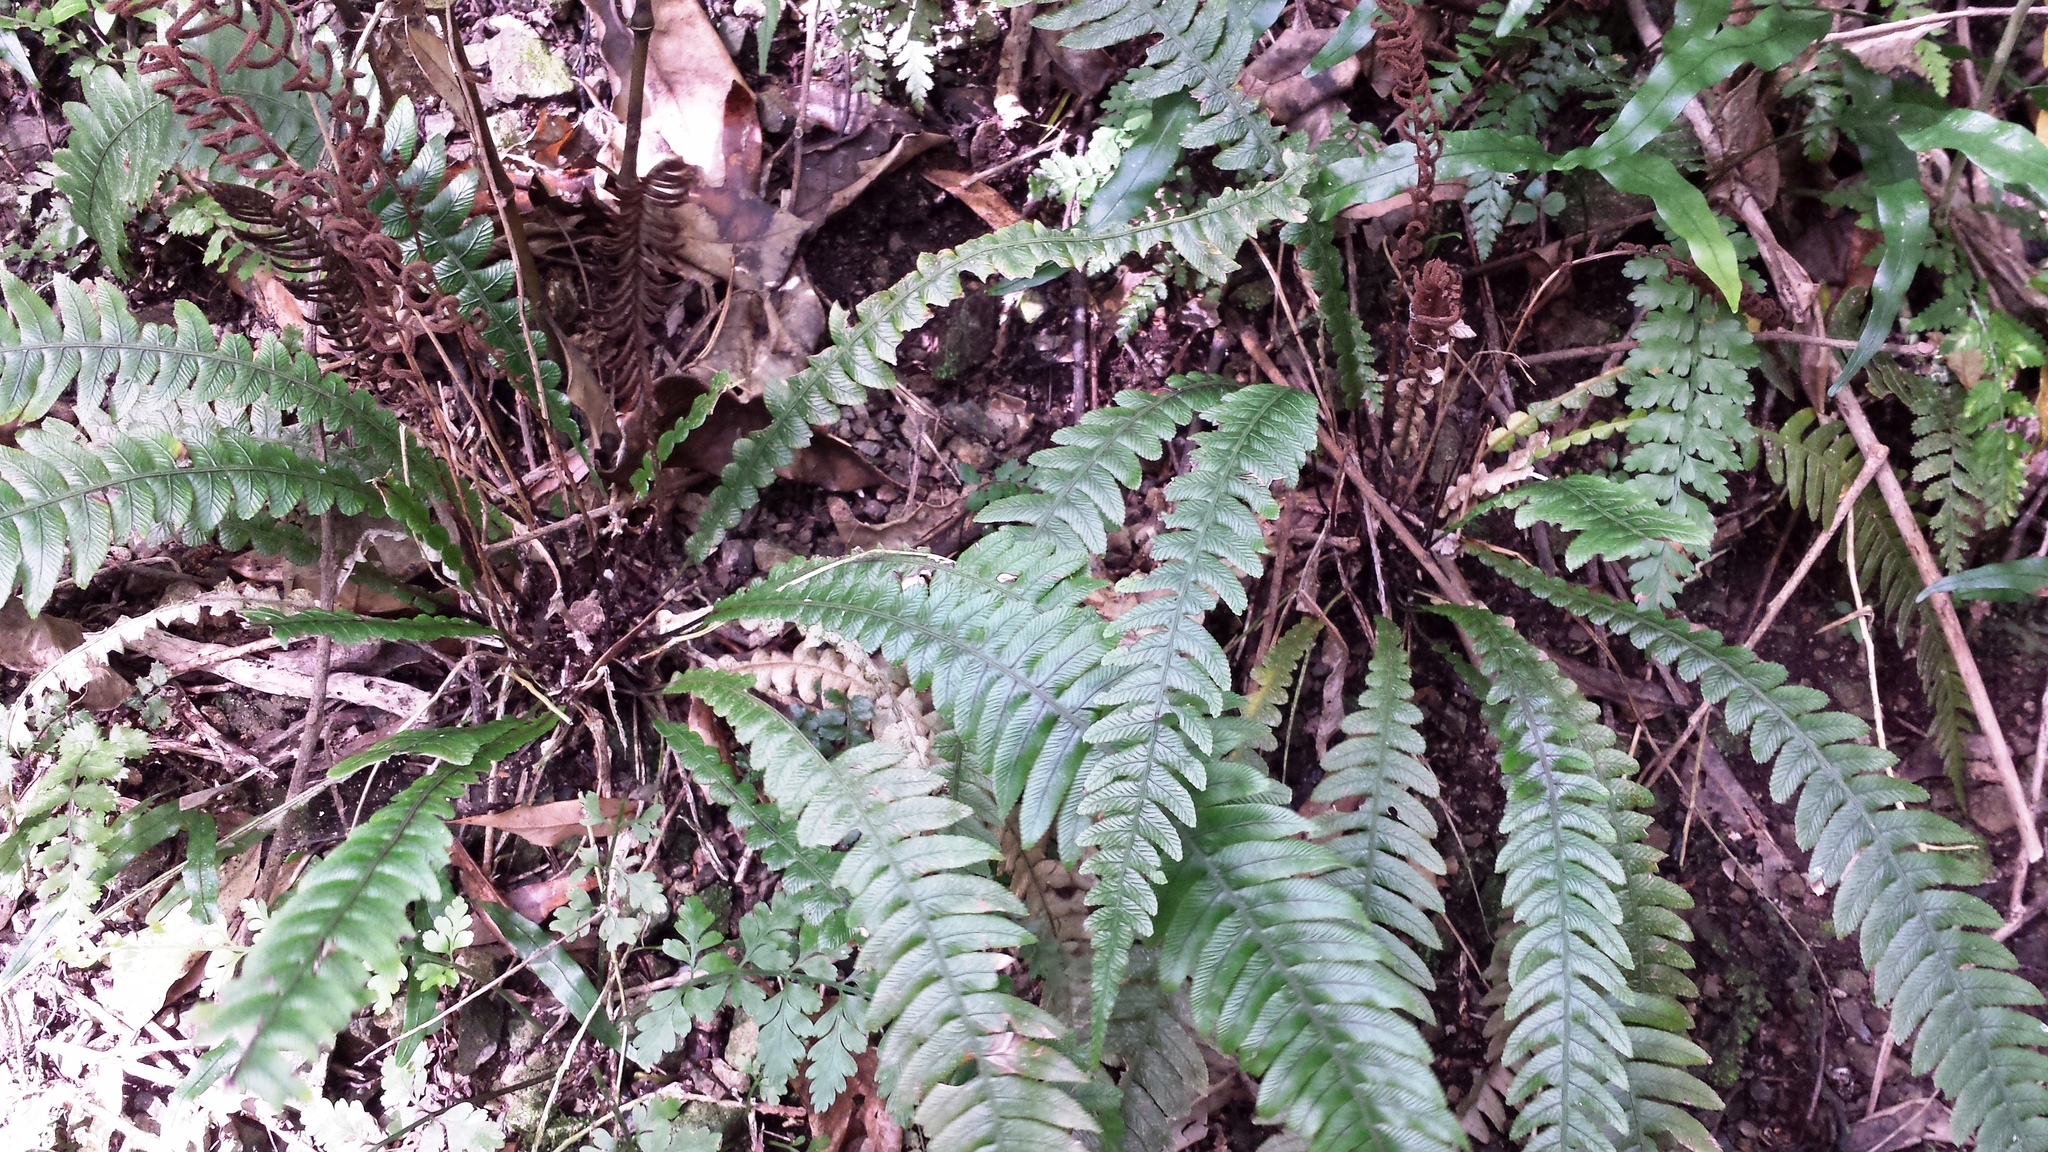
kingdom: Plantae
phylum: Tracheophyta
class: Polypodiopsida
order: Polypodiales
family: Blechnaceae
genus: Austroblechnum
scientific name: Austroblechnum lanceolatum
